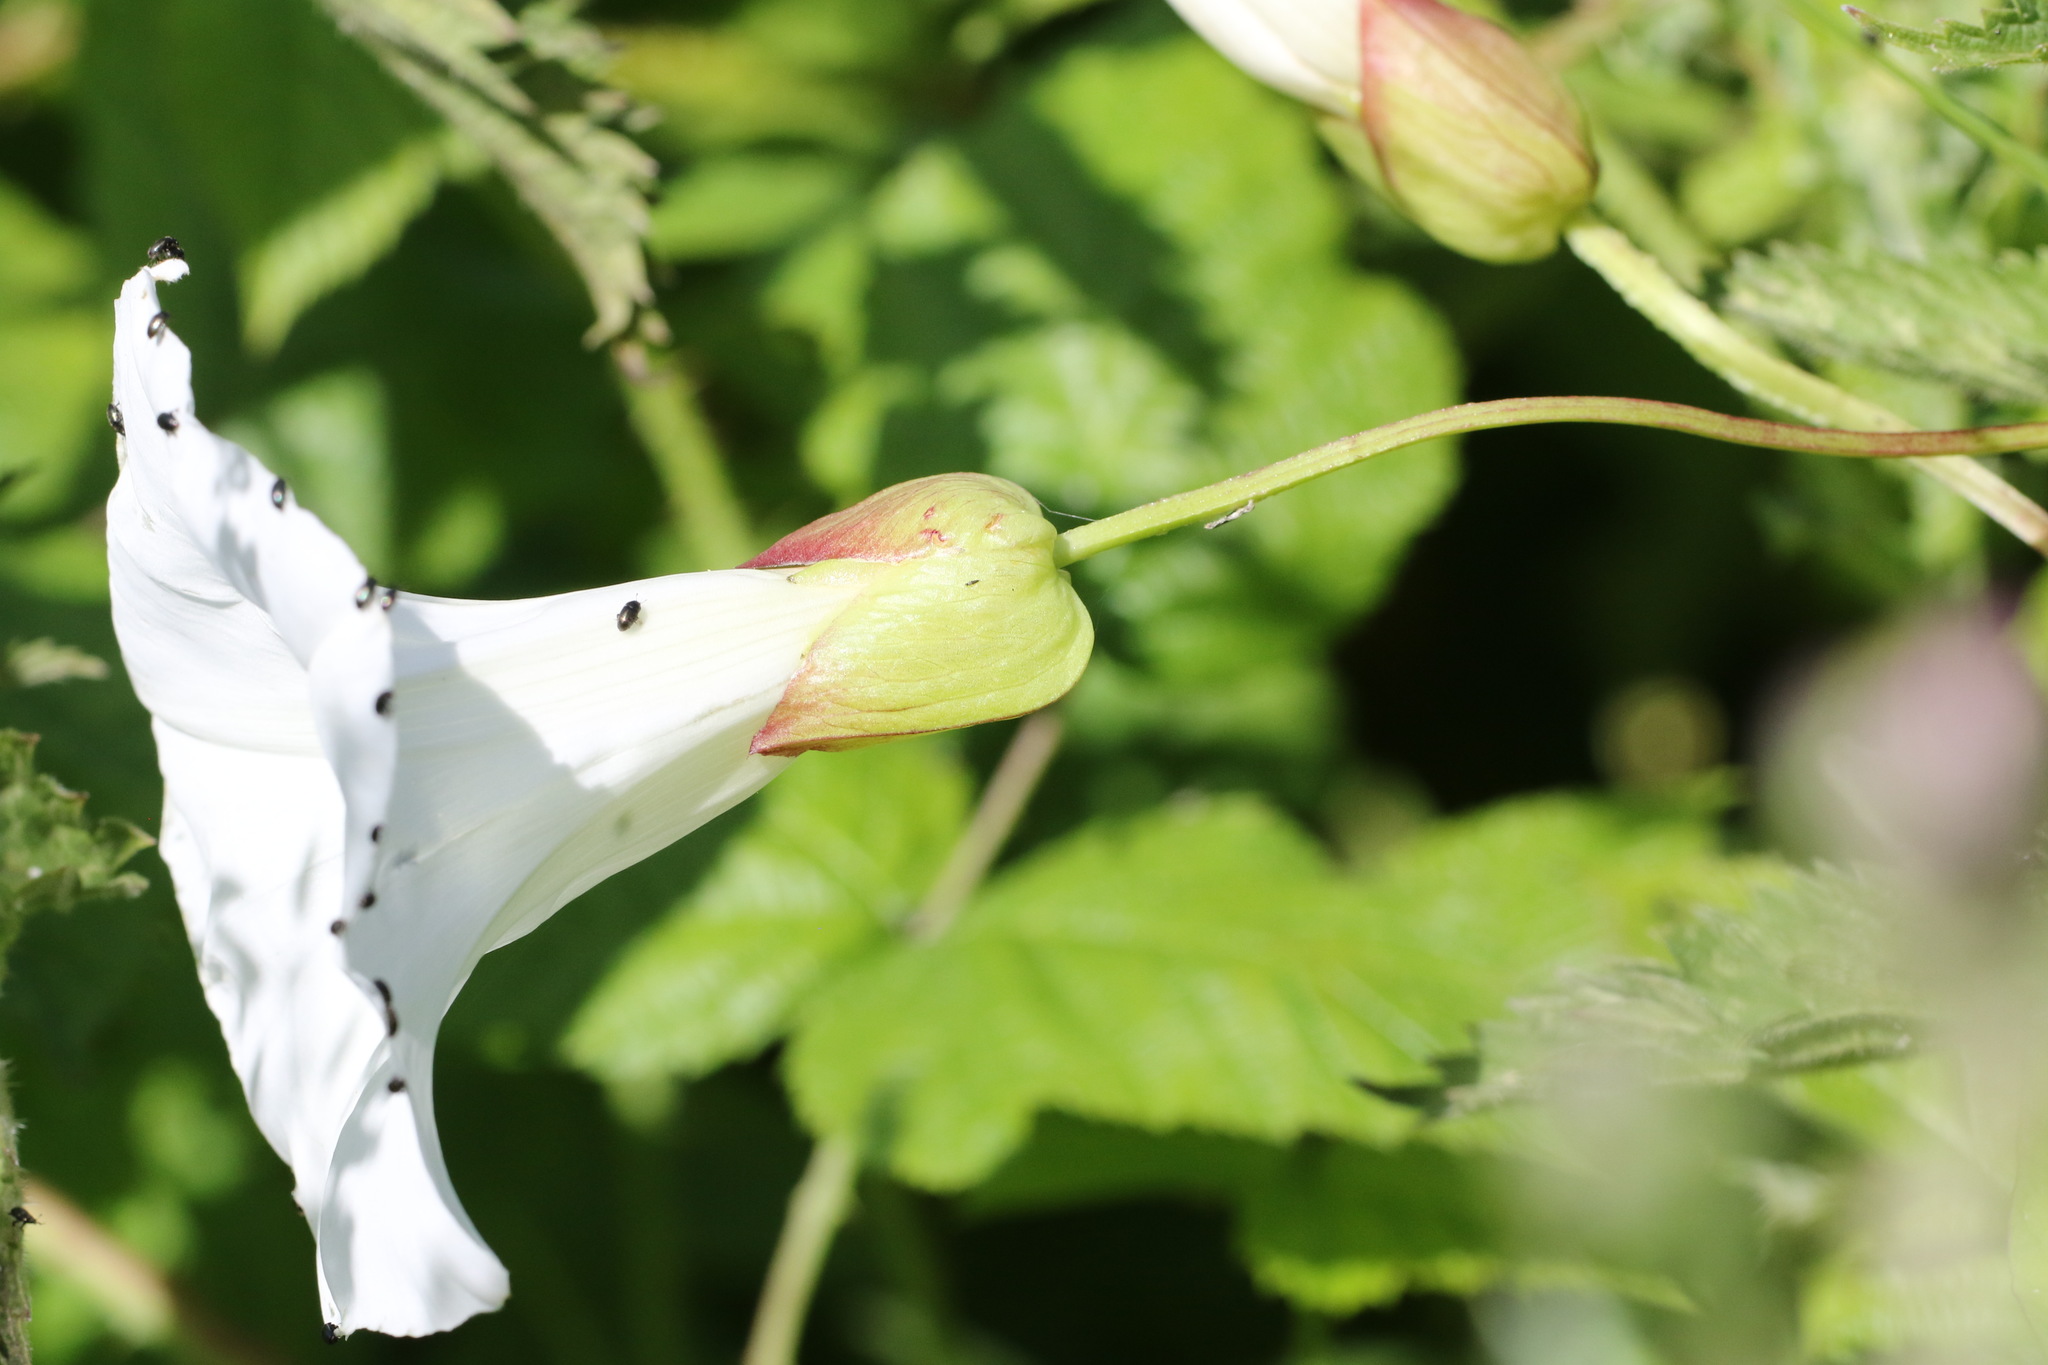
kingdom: Plantae
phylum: Tracheophyta
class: Magnoliopsida
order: Solanales
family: Convolvulaceae
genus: Calystegia
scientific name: Calystegia silvatica
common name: Large bindweed
